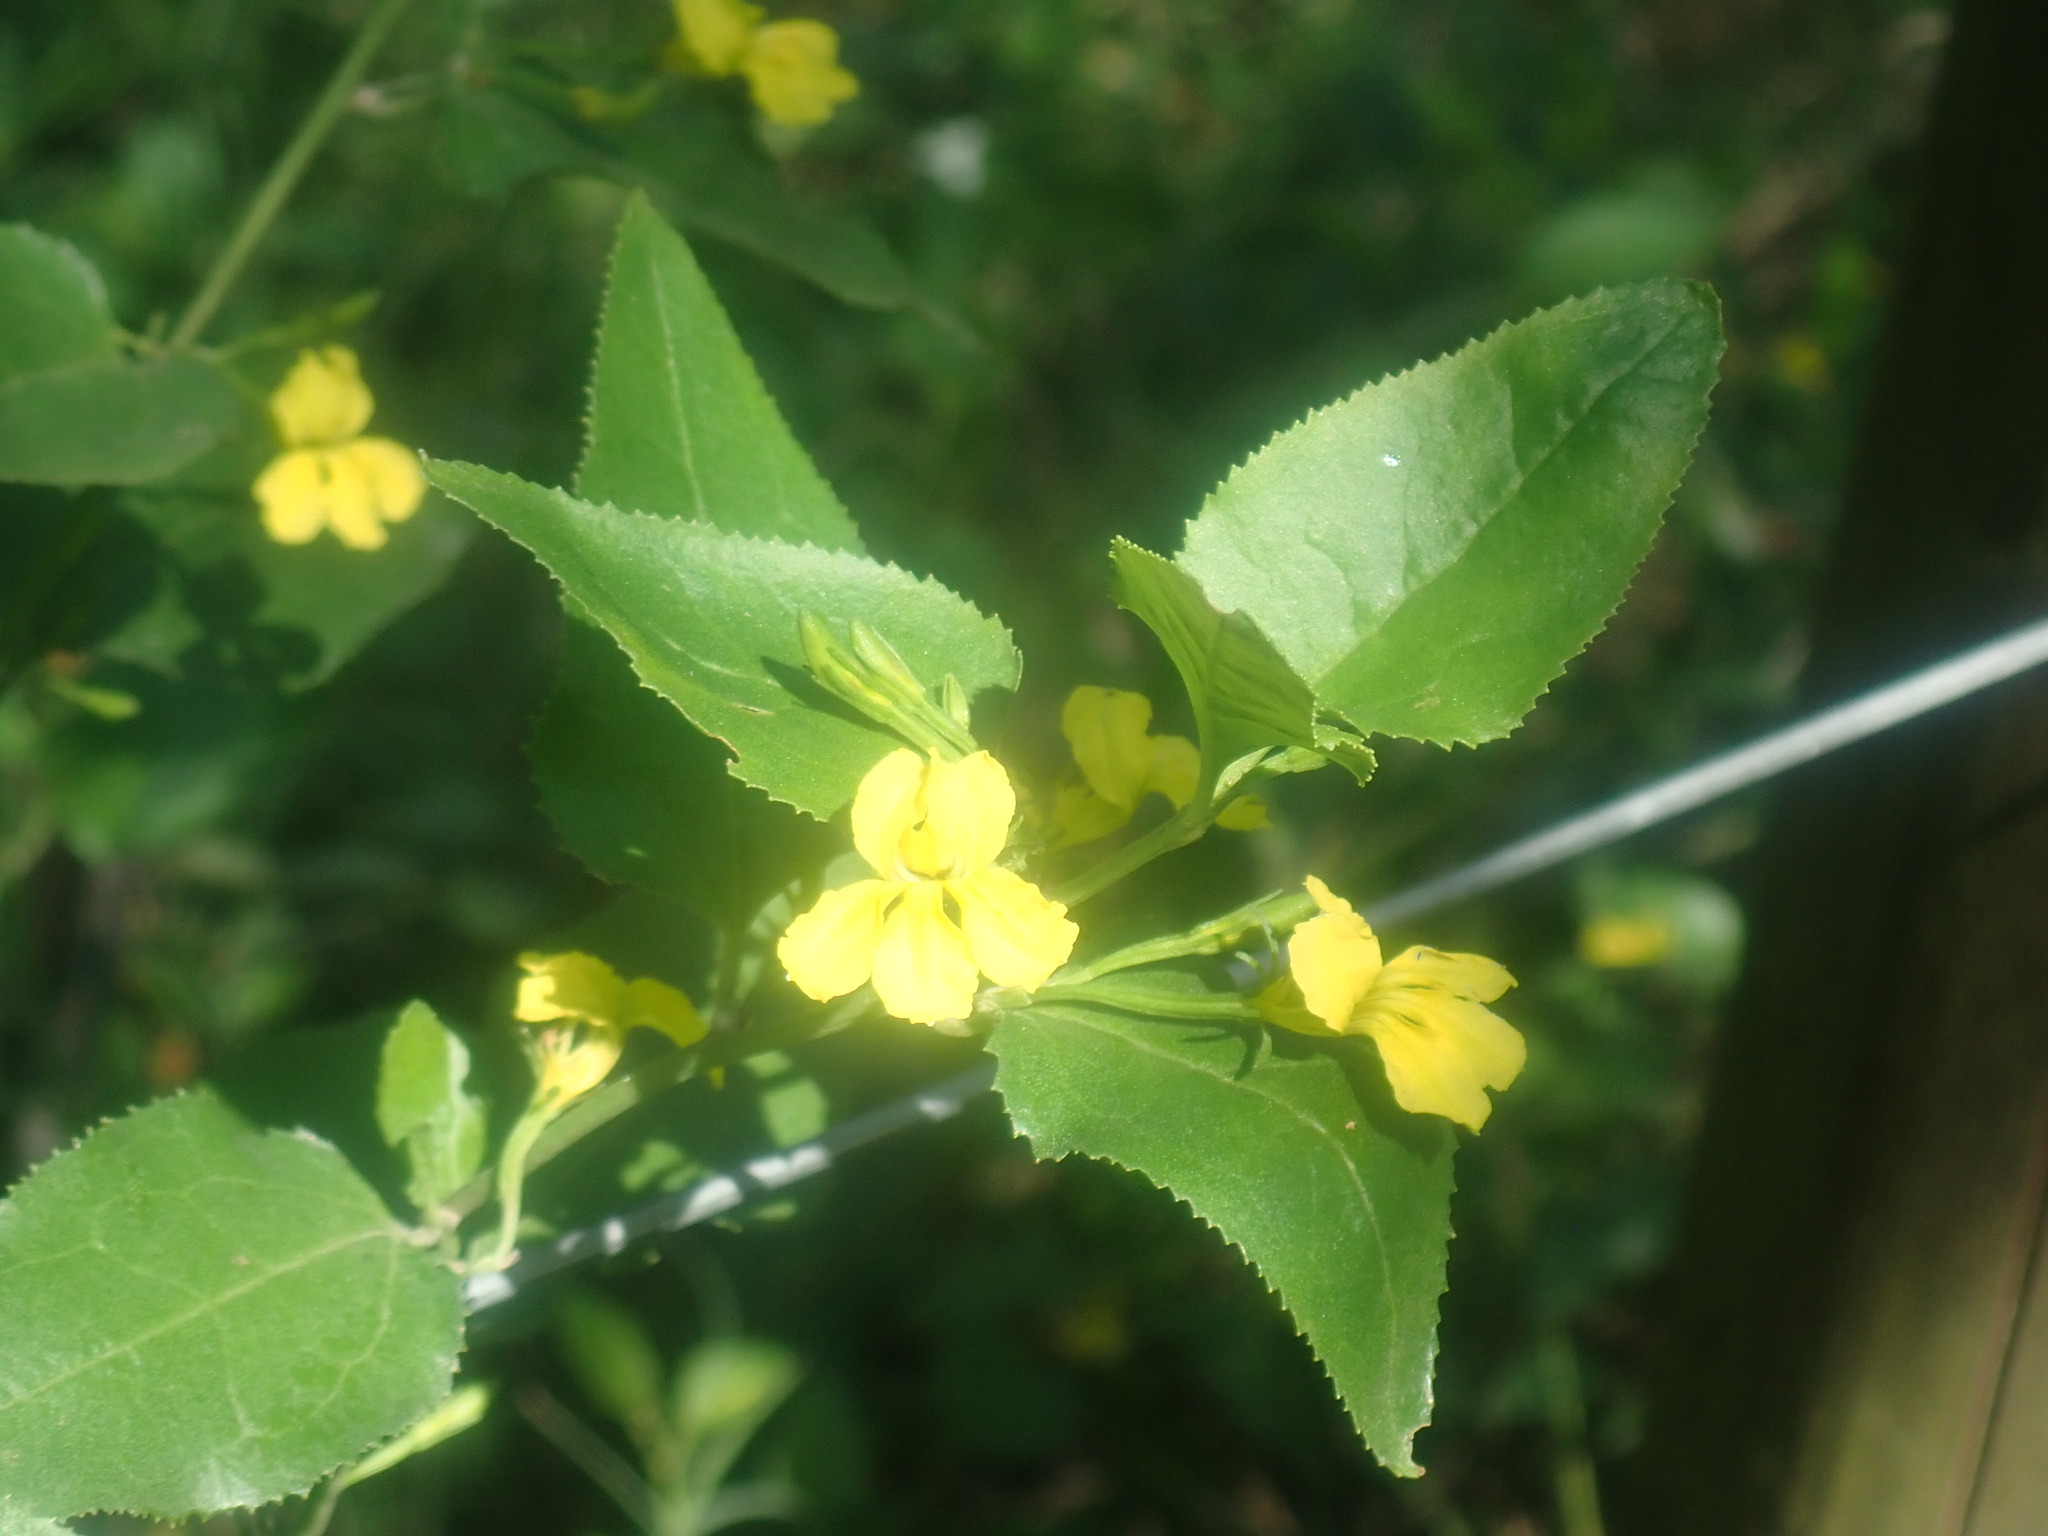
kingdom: Plantae
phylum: Tracheophyta
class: Magnoliopsida
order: Asterales
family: Goodeniaceae
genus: Goodenia
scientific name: Goodenia ovata
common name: Hop goodenia
